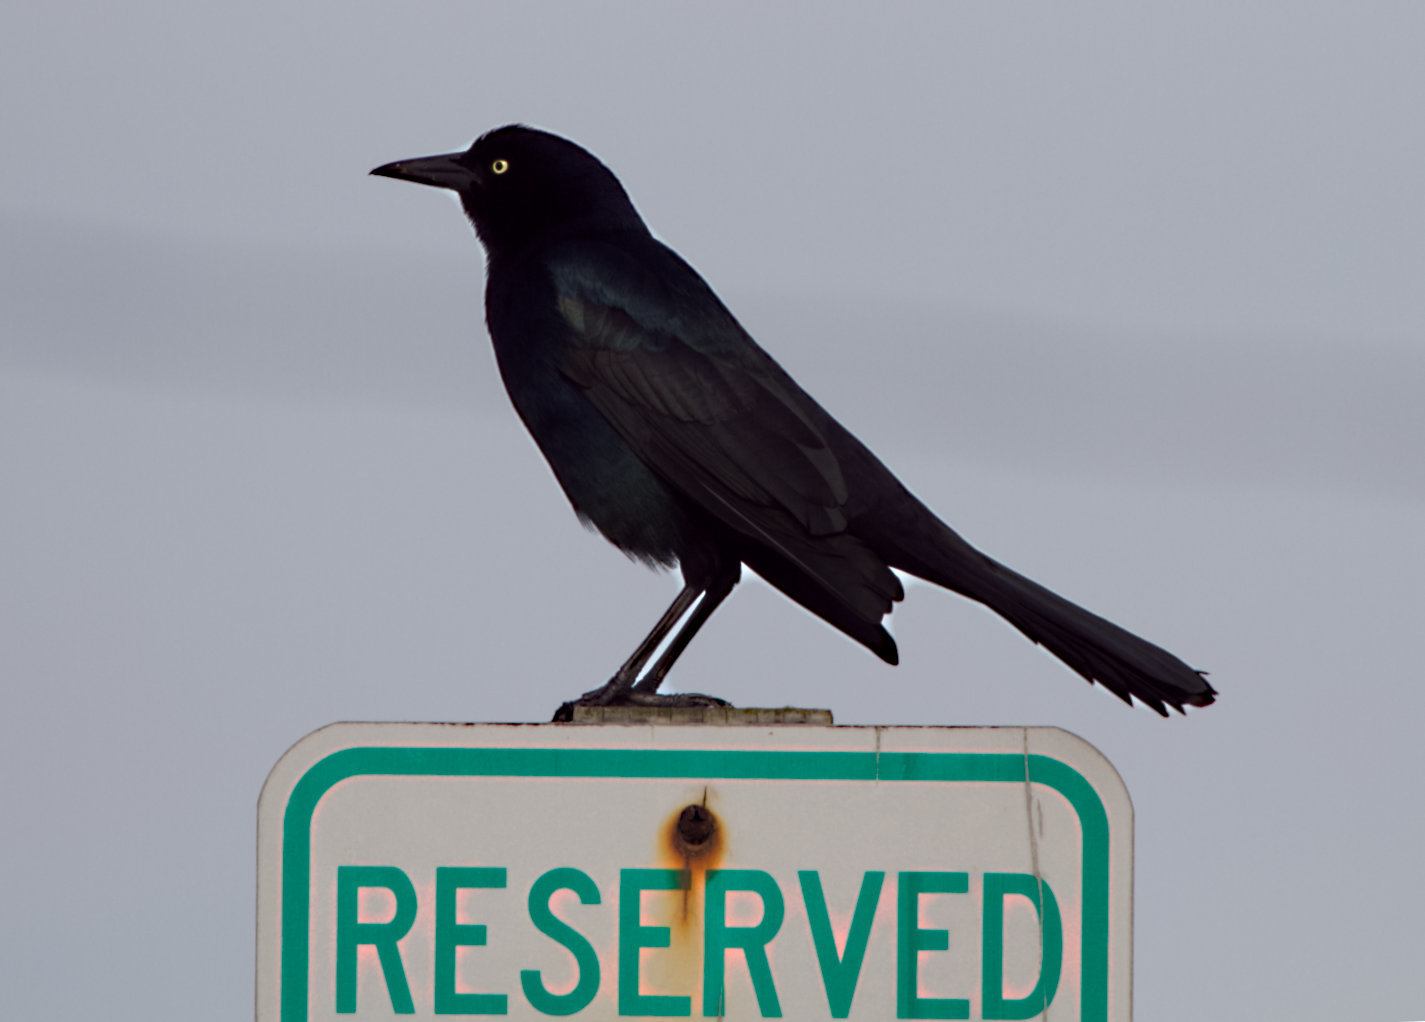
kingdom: Animalia
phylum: Chordata
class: Aves
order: Passeriformes
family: Icteridae
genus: Quiscalus
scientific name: Quiscalus major
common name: Boat-tailed grackle
